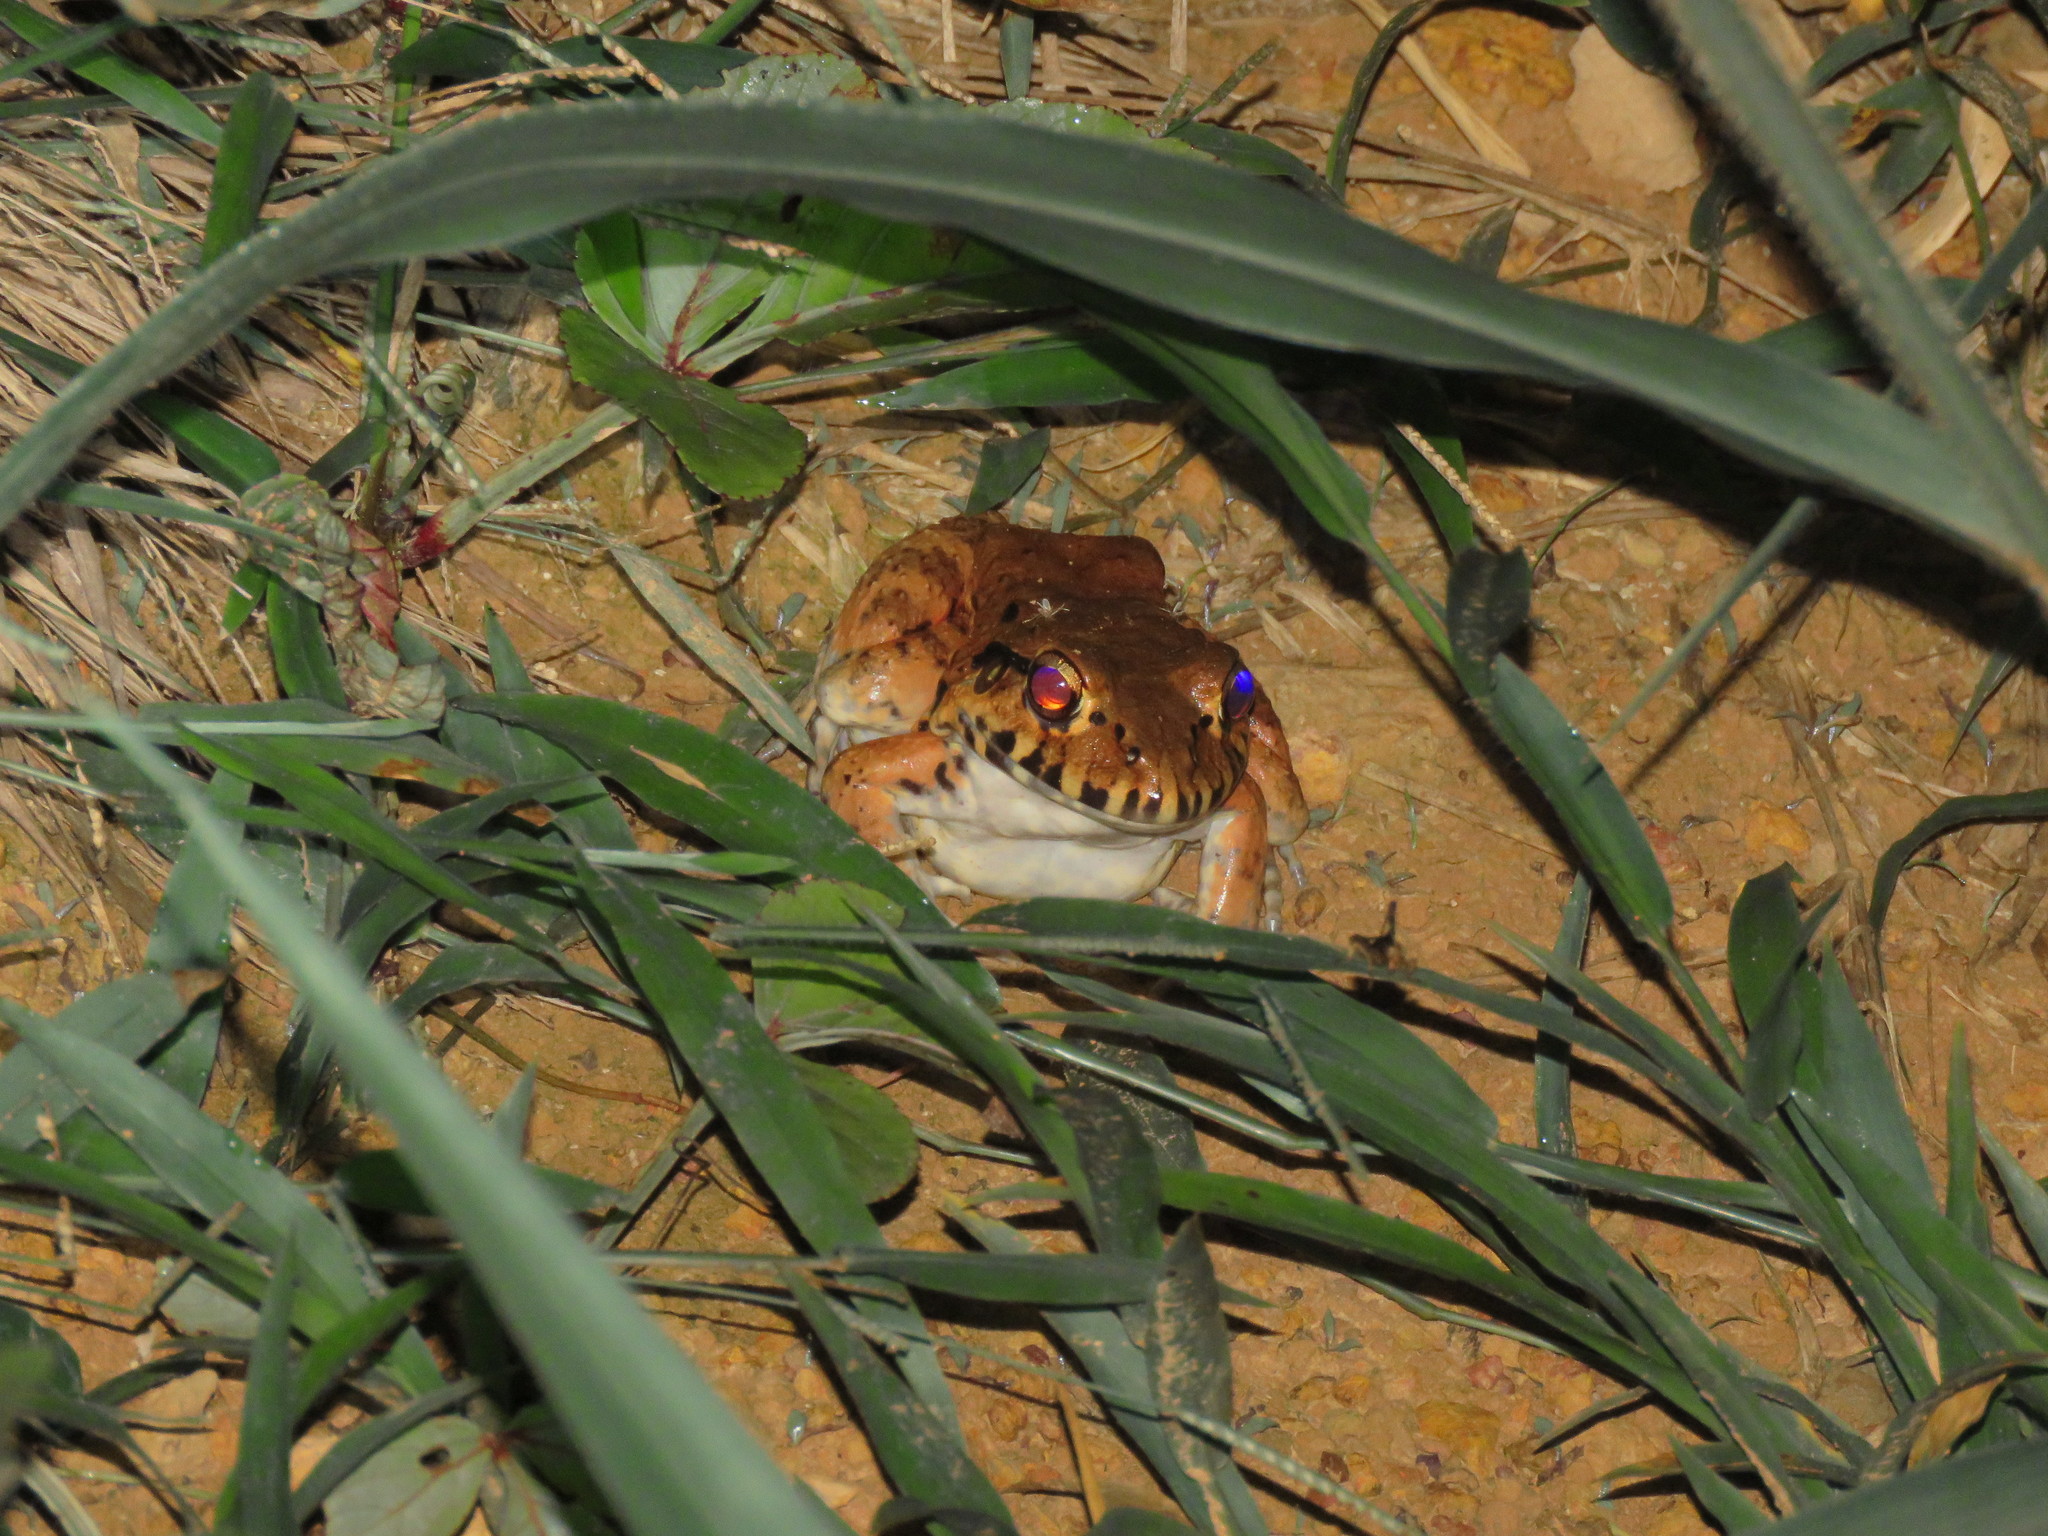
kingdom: Animalia
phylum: Chordata
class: Amphibia
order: Anura
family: Leptodactylidae
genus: Leptodactylus
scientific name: Leptodactylus pentadactylus
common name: Smoky jungle frog
